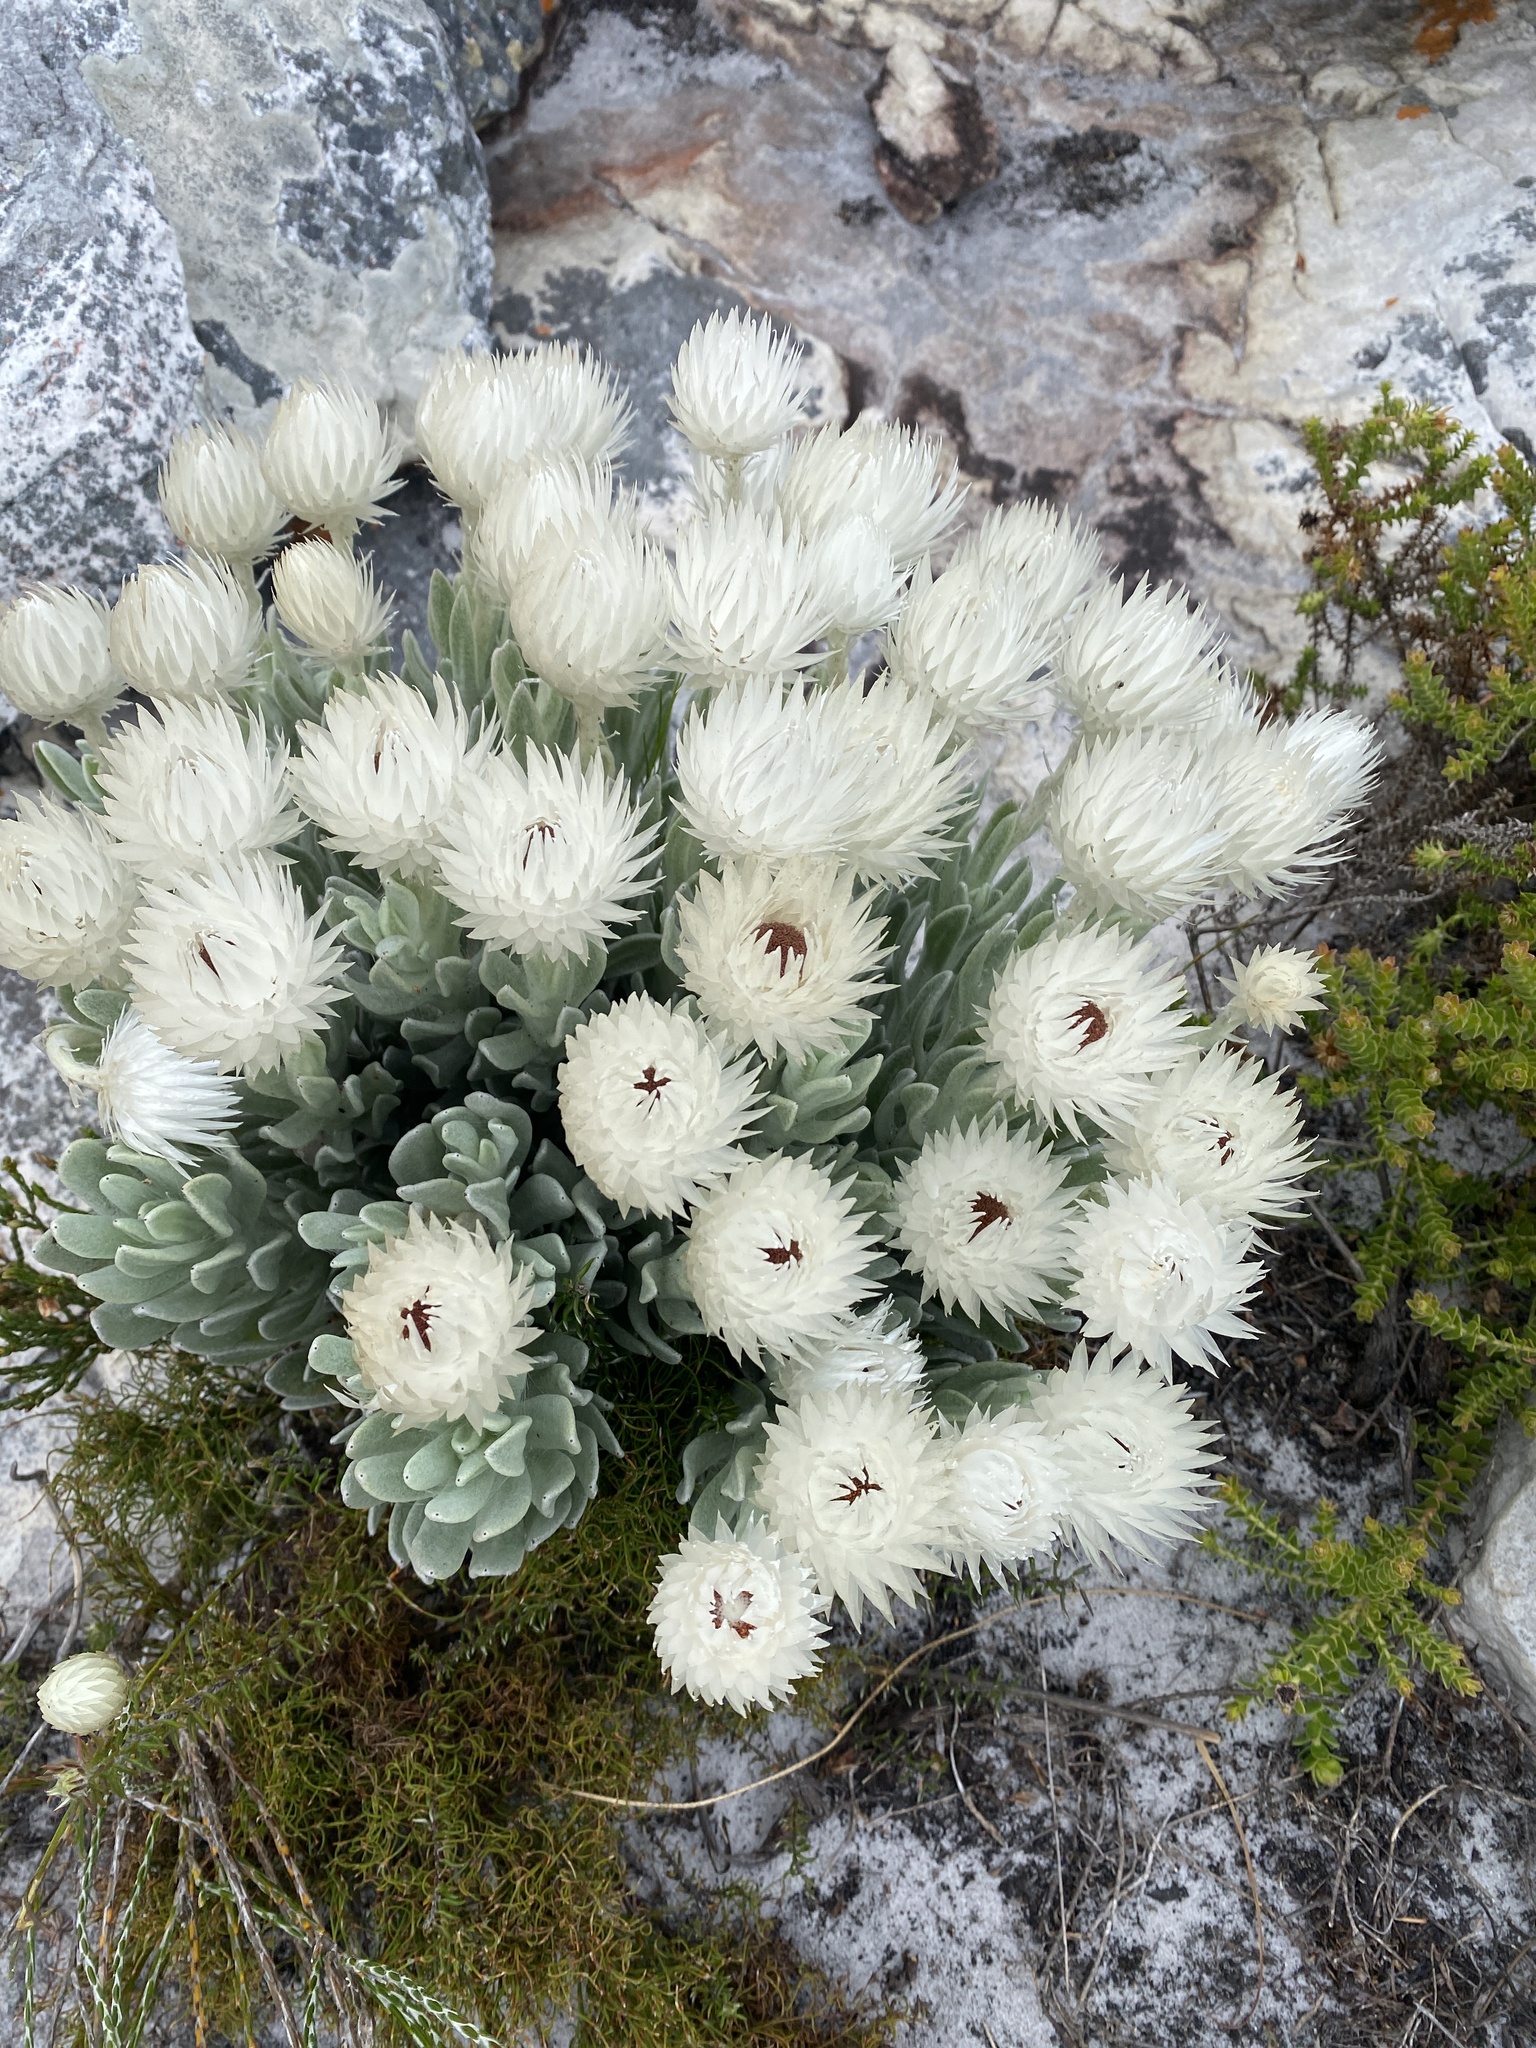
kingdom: Plantae
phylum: Tracheophyta
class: Magnoliopsida
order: Asterales
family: Asteraceae
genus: Syncarpha
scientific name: Syncarpha vestita
